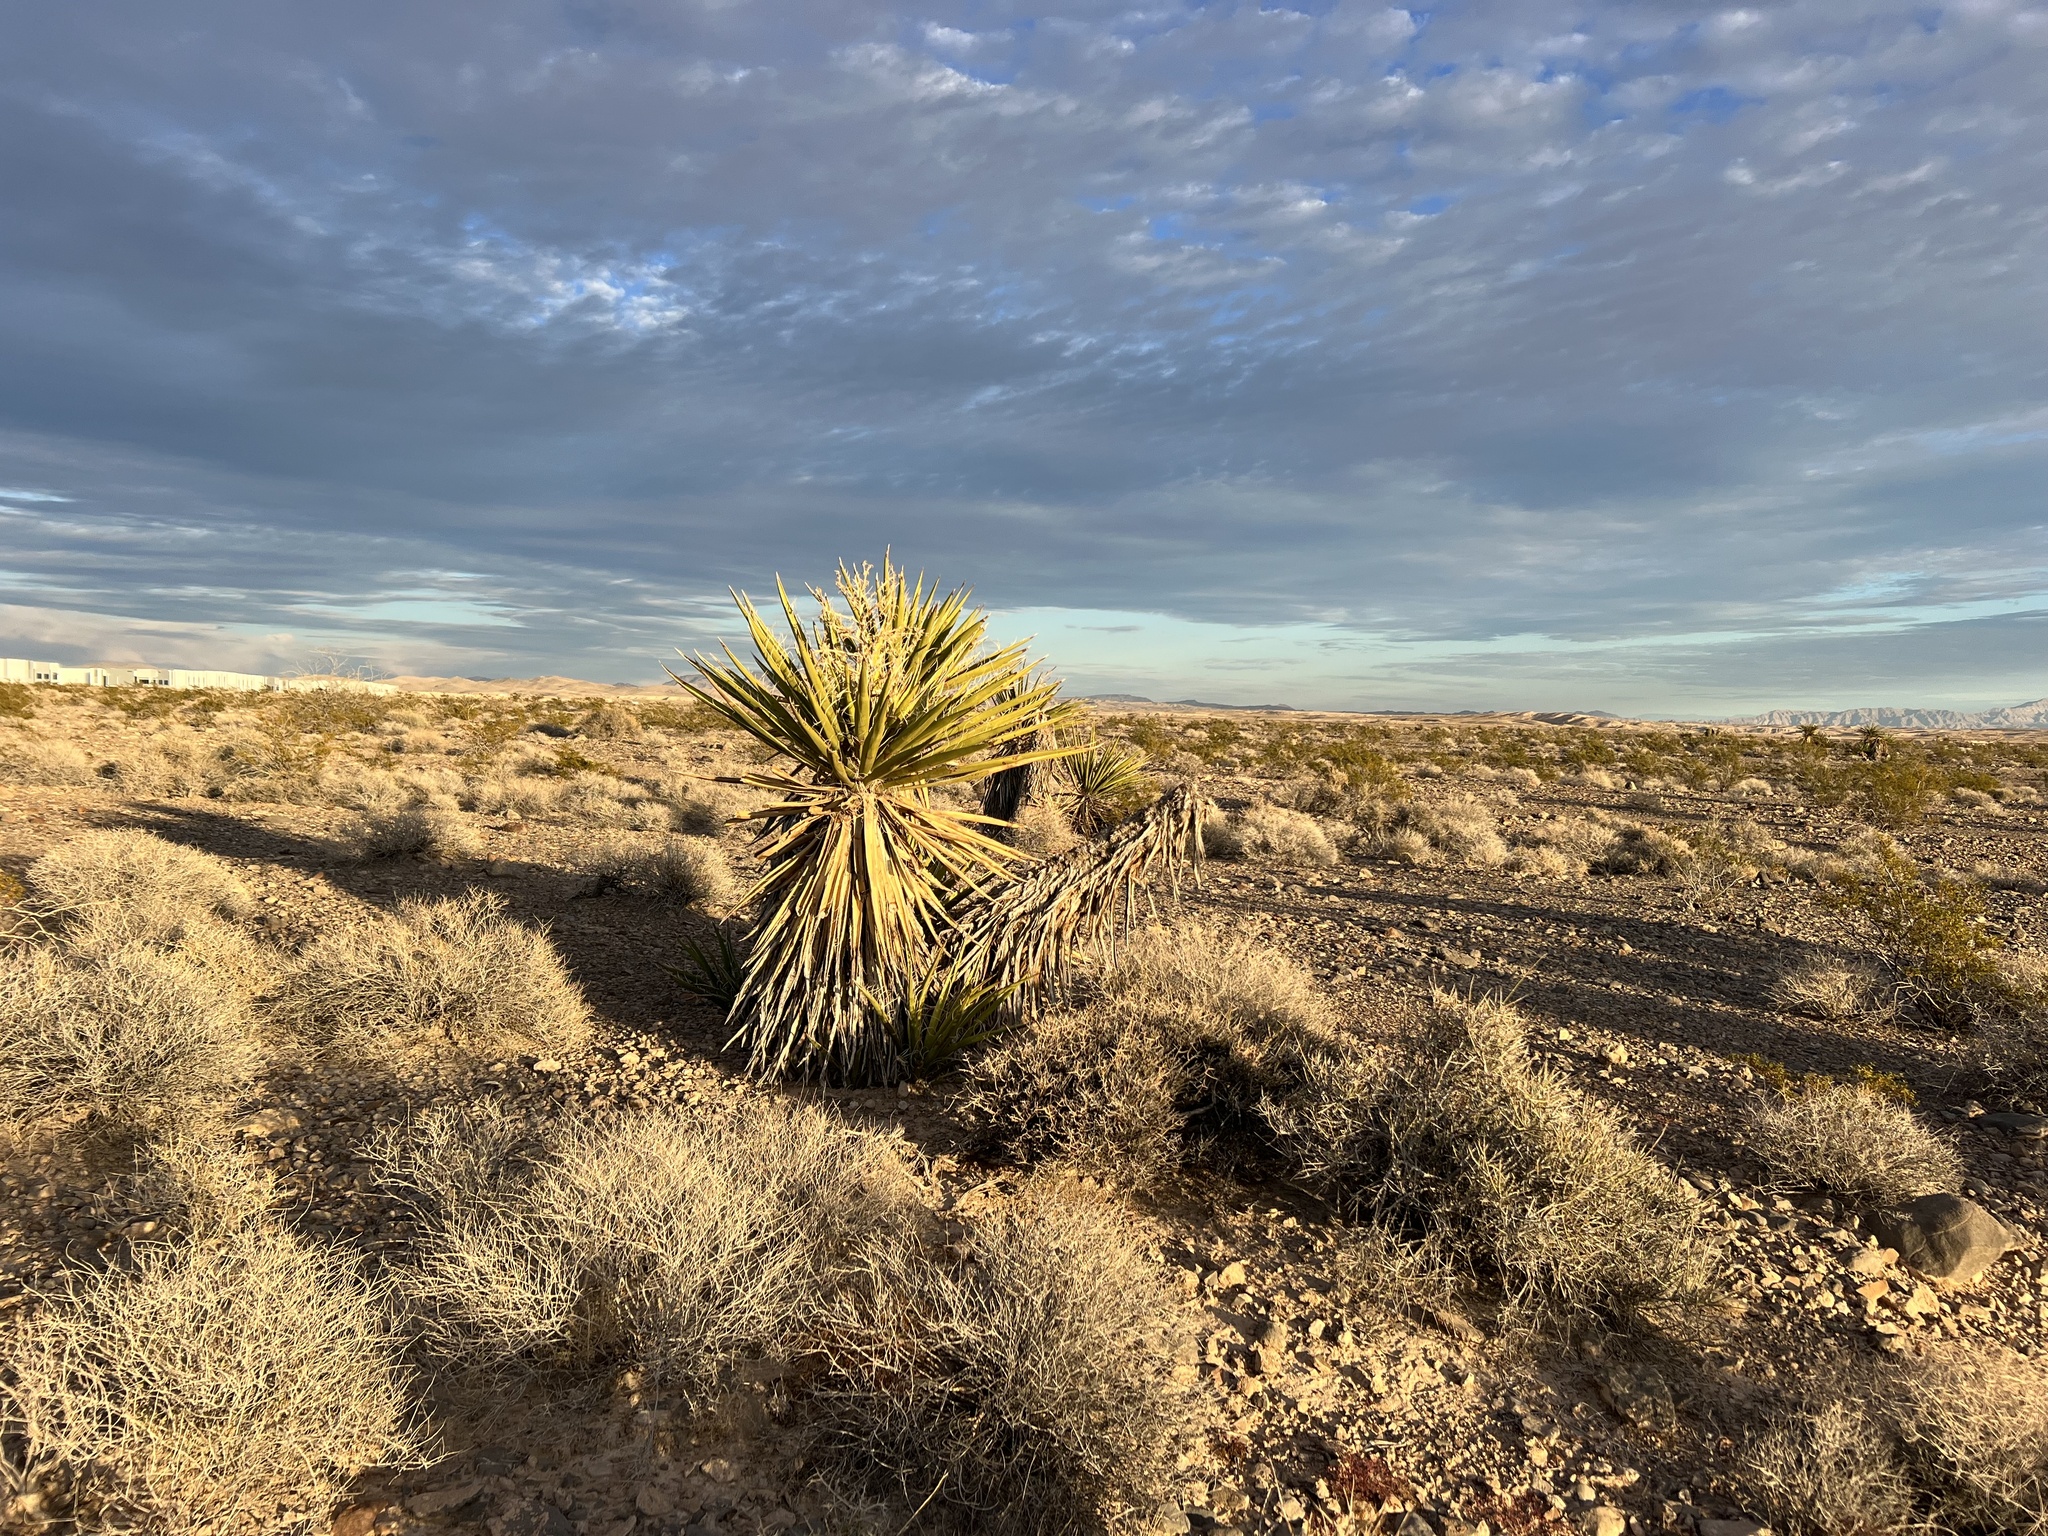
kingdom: Plantae
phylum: Tracheophyta
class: Liliopsida
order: Asparagales
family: Asparagaceae
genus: Yucca
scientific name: Yucca schidigera
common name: Mojave yucca
